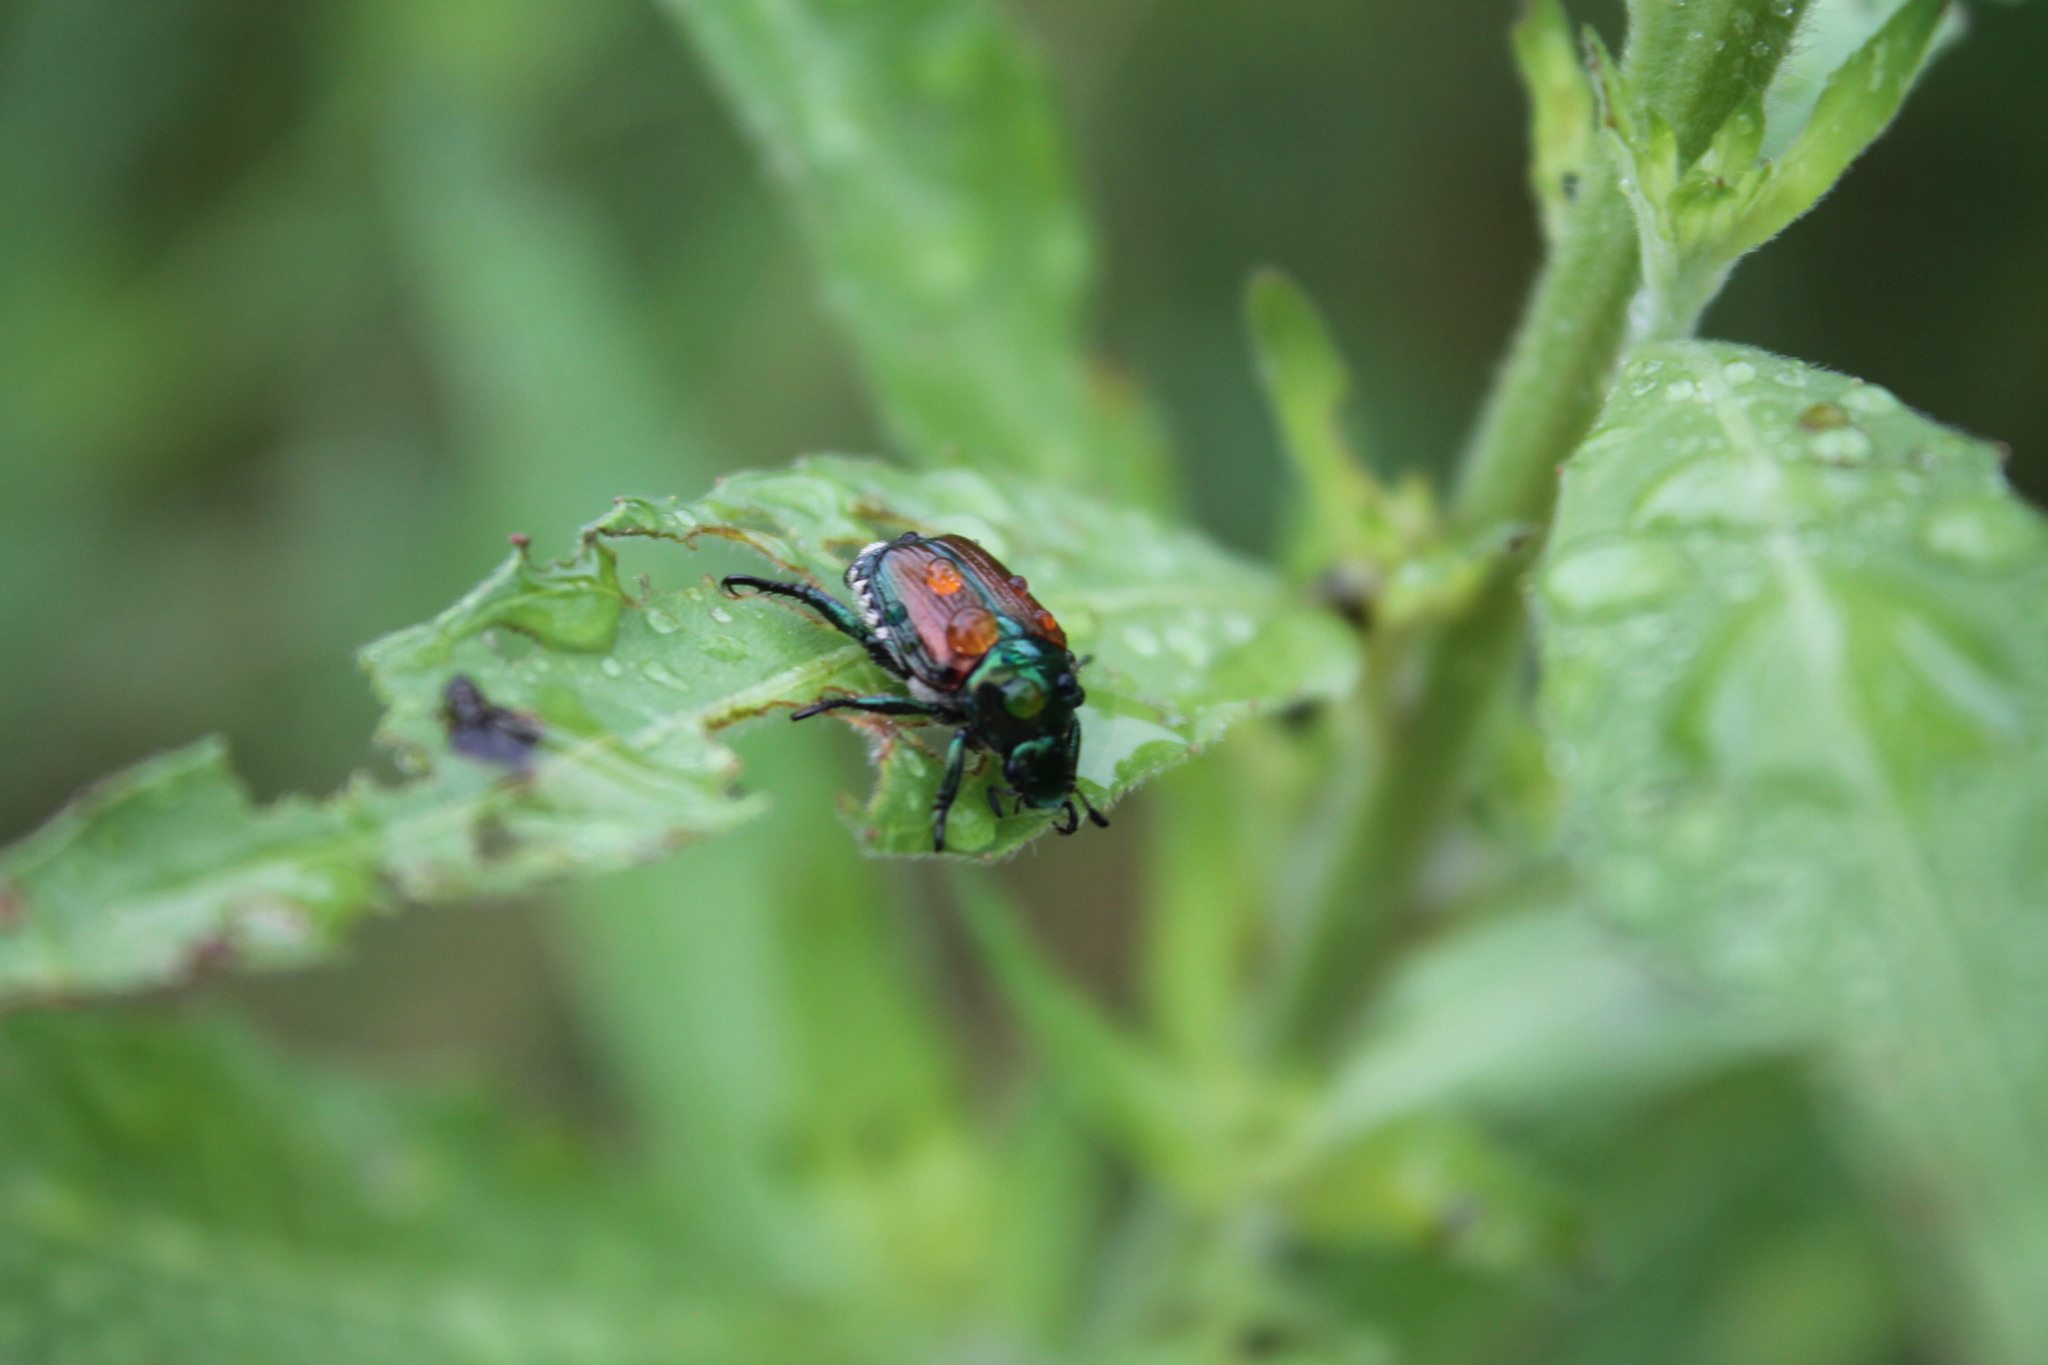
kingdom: Animalia
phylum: Arthropoda
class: Insecta
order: Coleoptera
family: Scarabaeidae
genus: Popillia
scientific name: Popillia japonica
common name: Japanese beetle
